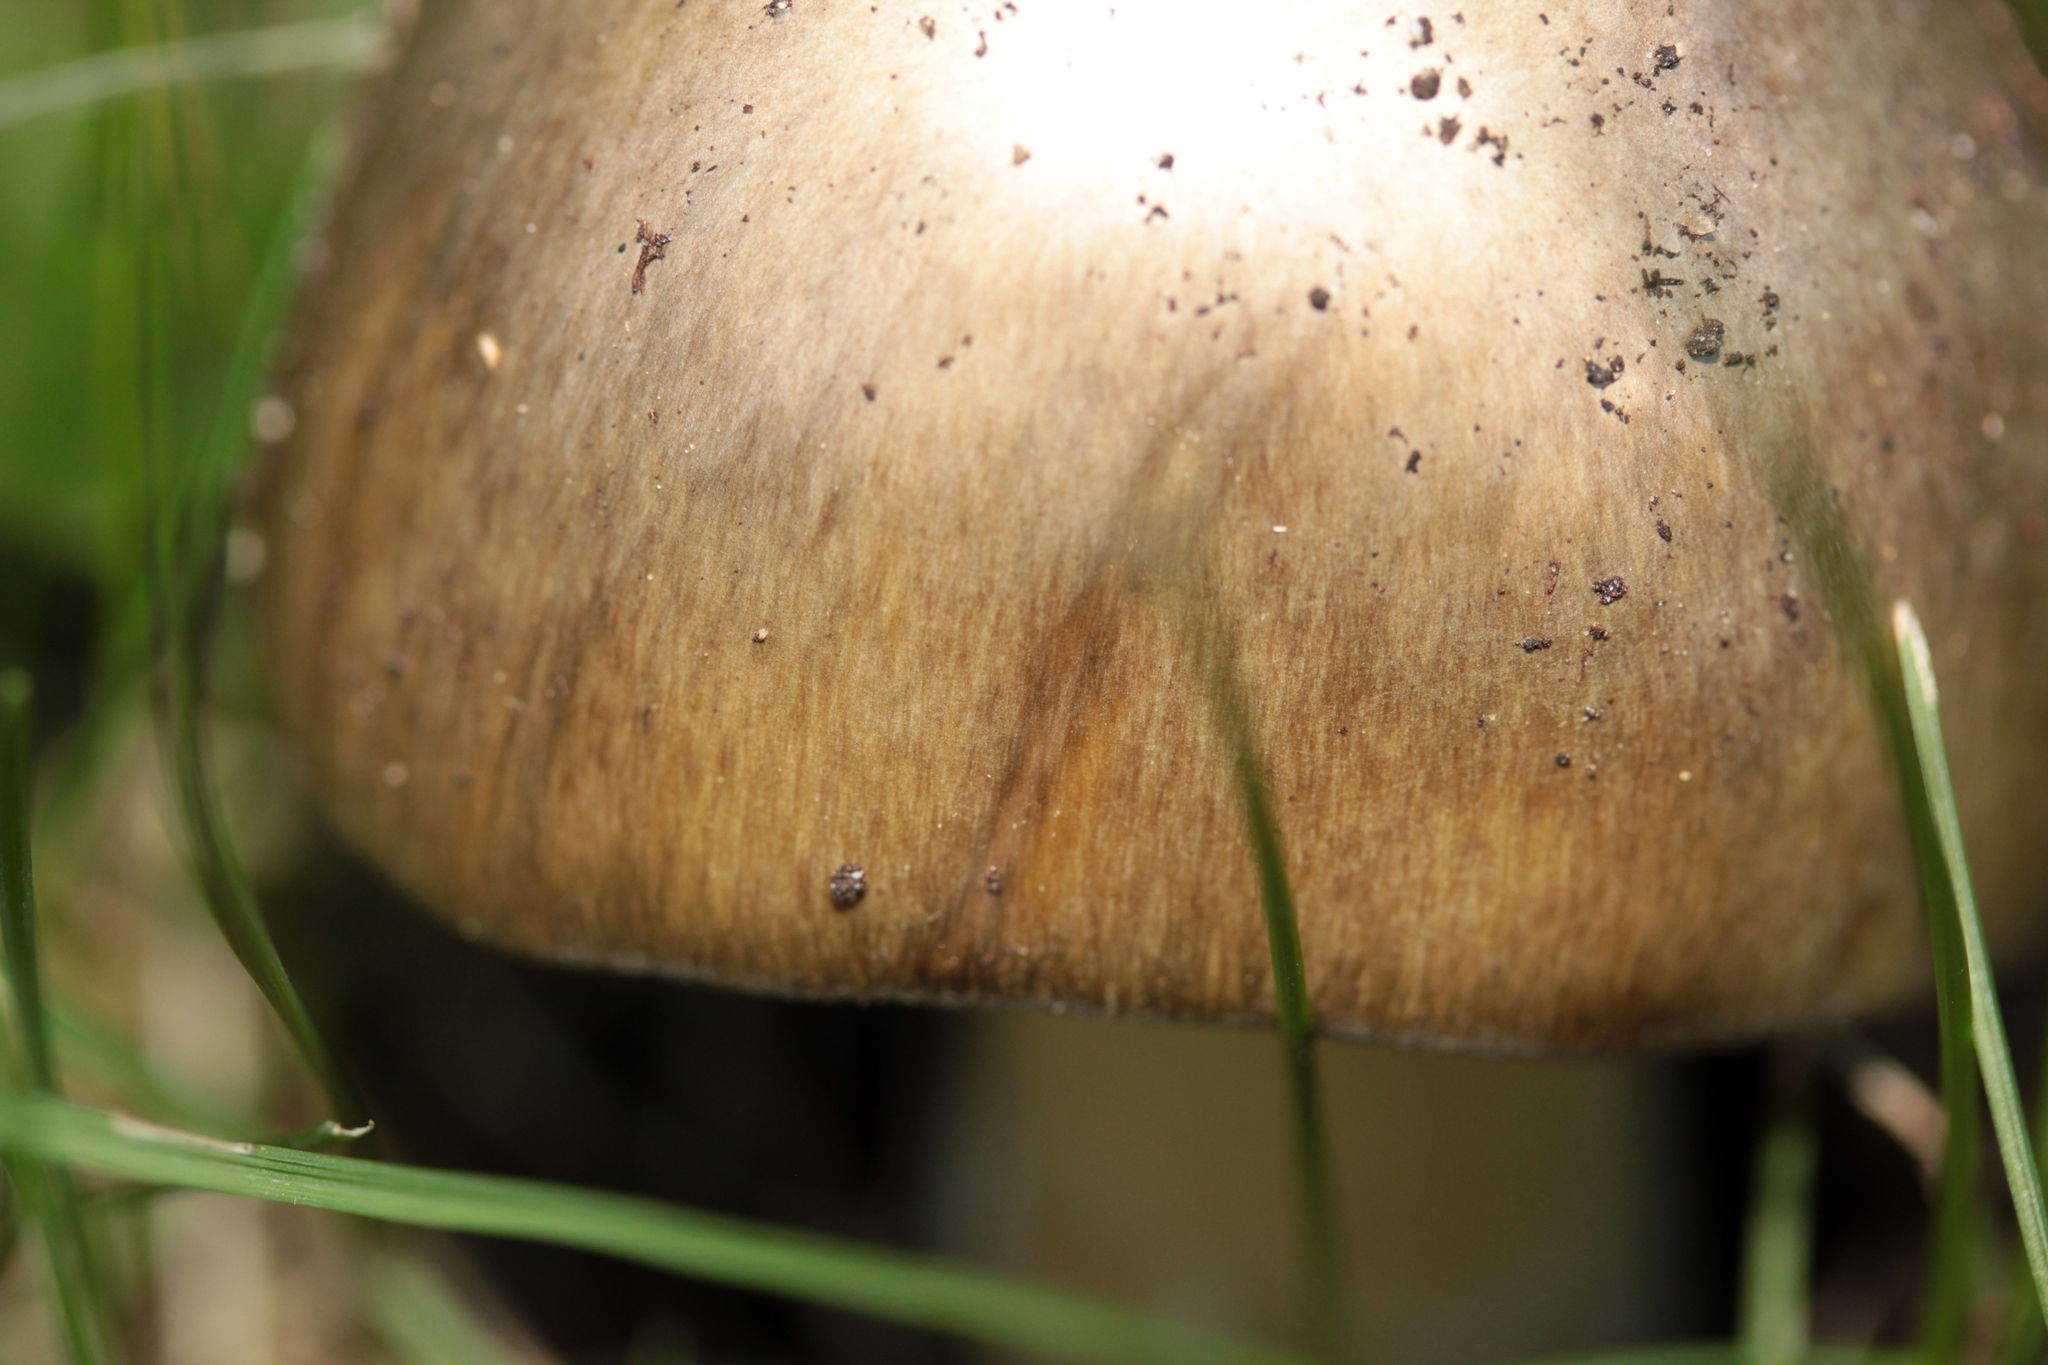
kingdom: Fungi
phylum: Basidiomycota
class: Agaricomycetes
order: Agaricales
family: Amanitaceae
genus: Amanita
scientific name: Amanita phalloides
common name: Death cap
